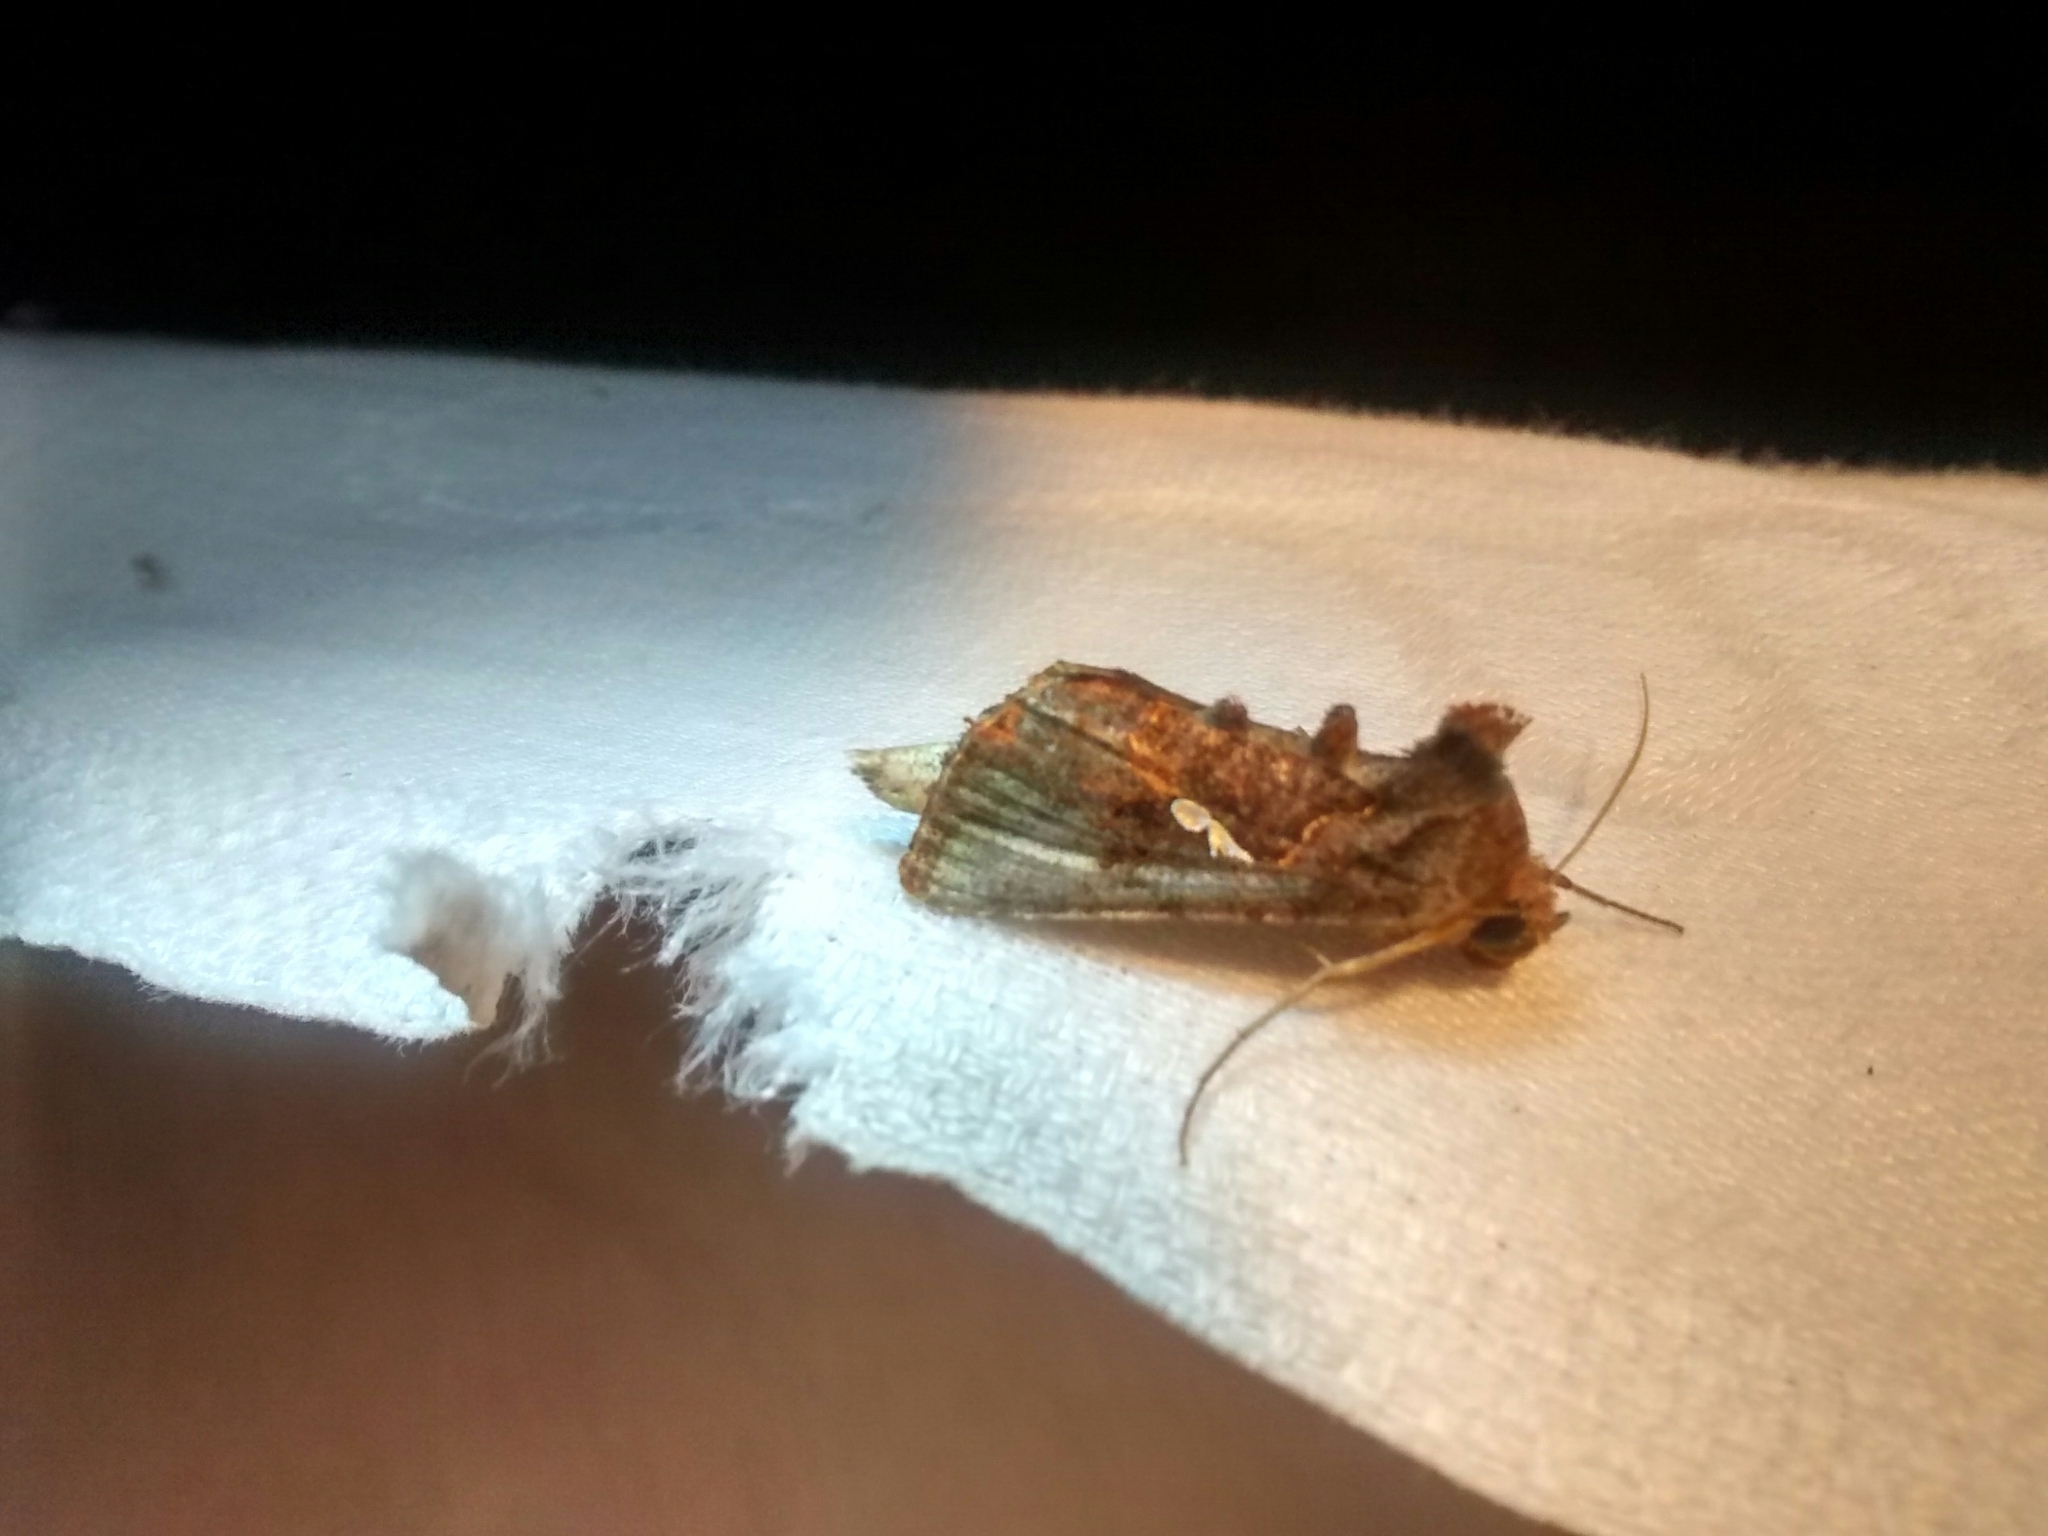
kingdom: Animalia
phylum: Arthropoda
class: Insecta
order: Lepidoptera
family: Noctuidae
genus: Autographa
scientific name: Autographa precationis
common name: Common looper moth
